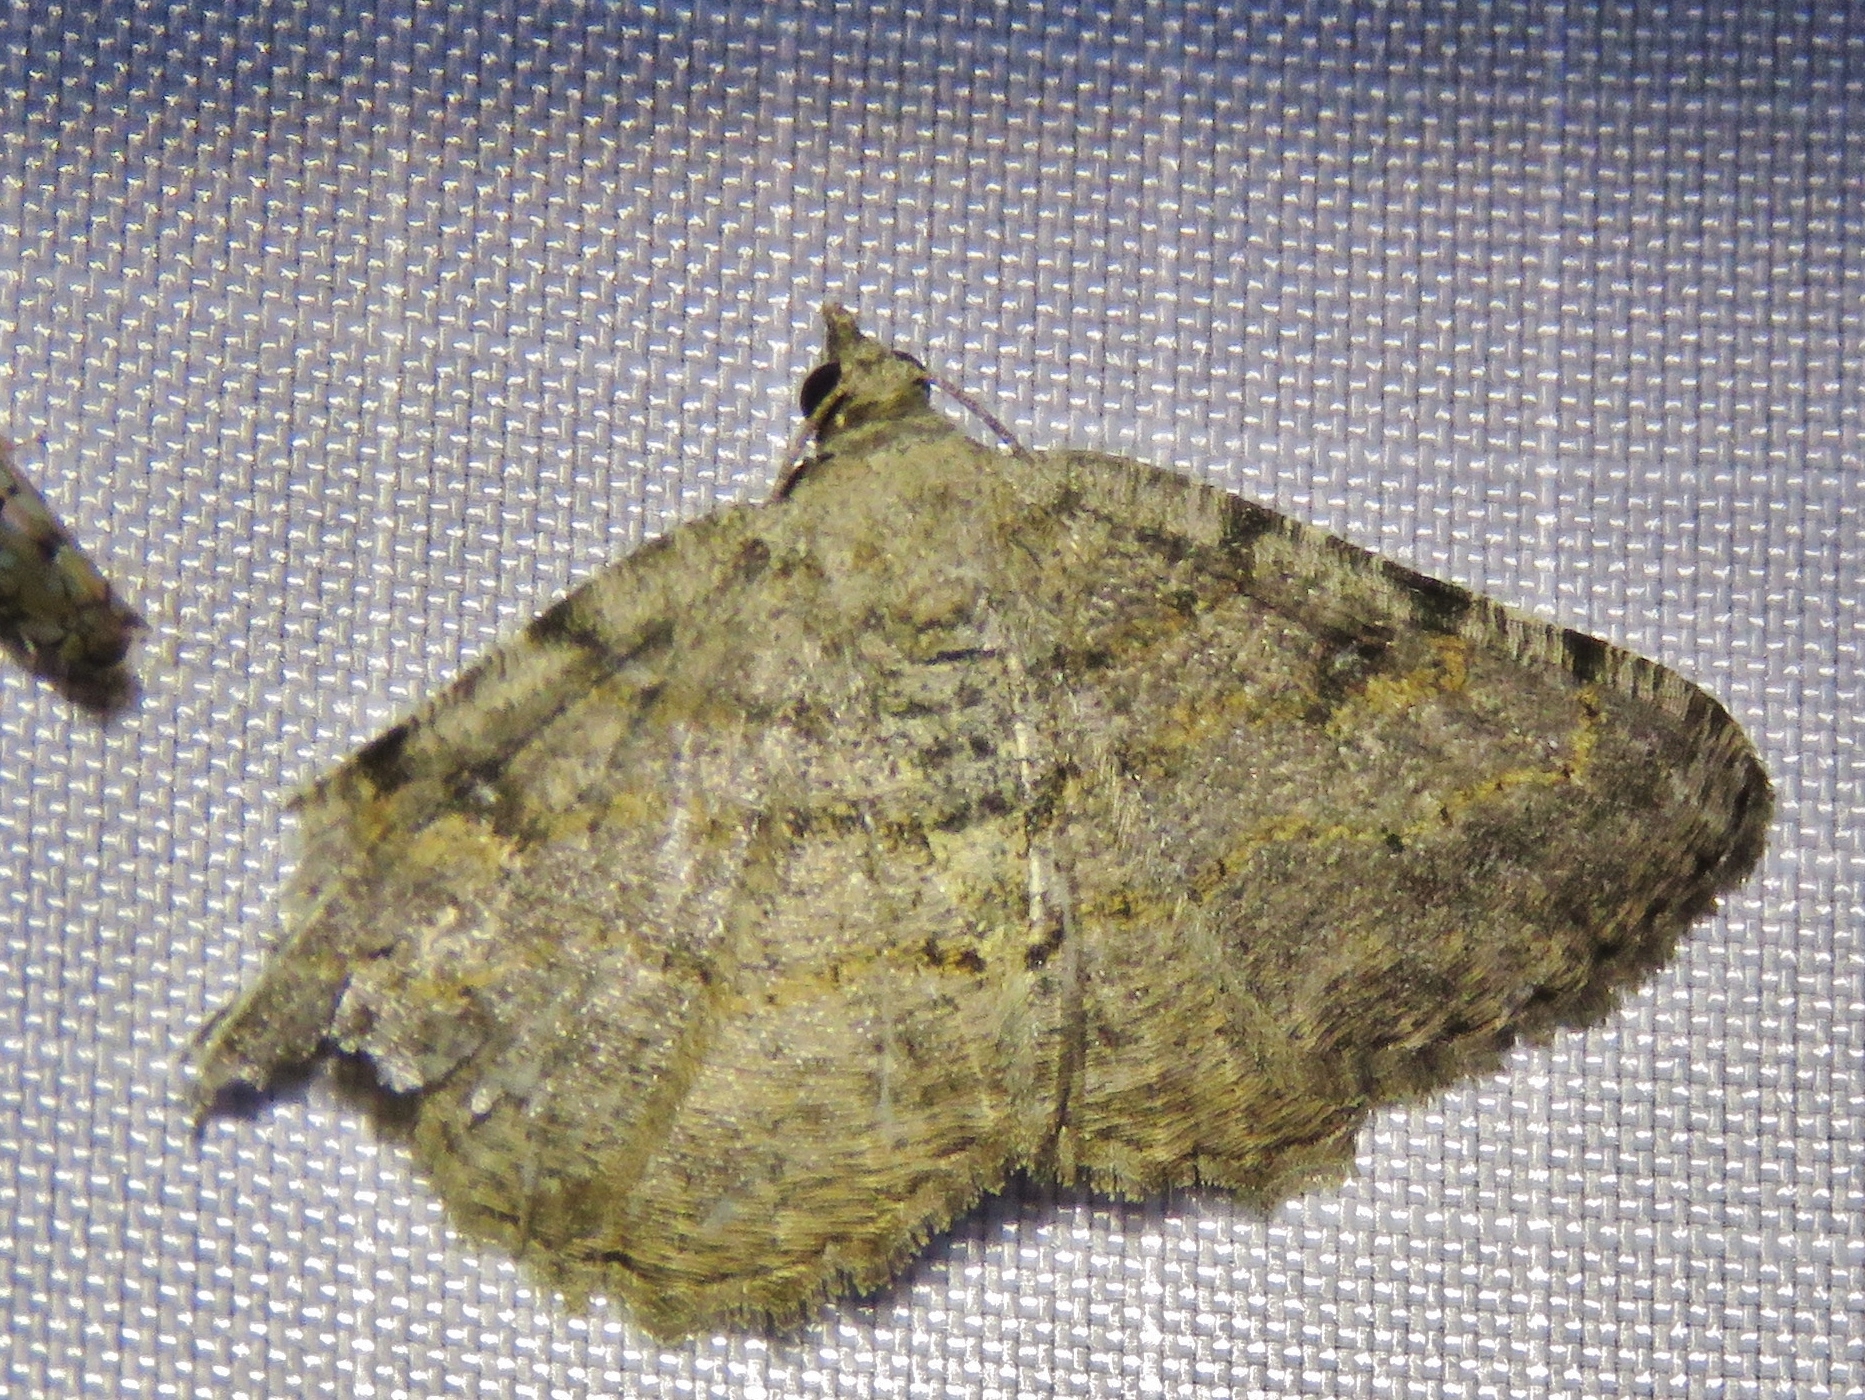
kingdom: Animalia
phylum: Arthropoda
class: Insecta
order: Lepidoptera
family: Geometridae
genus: Digrammia
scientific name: Digrammia gnophosaria
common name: Hollow-spotted angle
